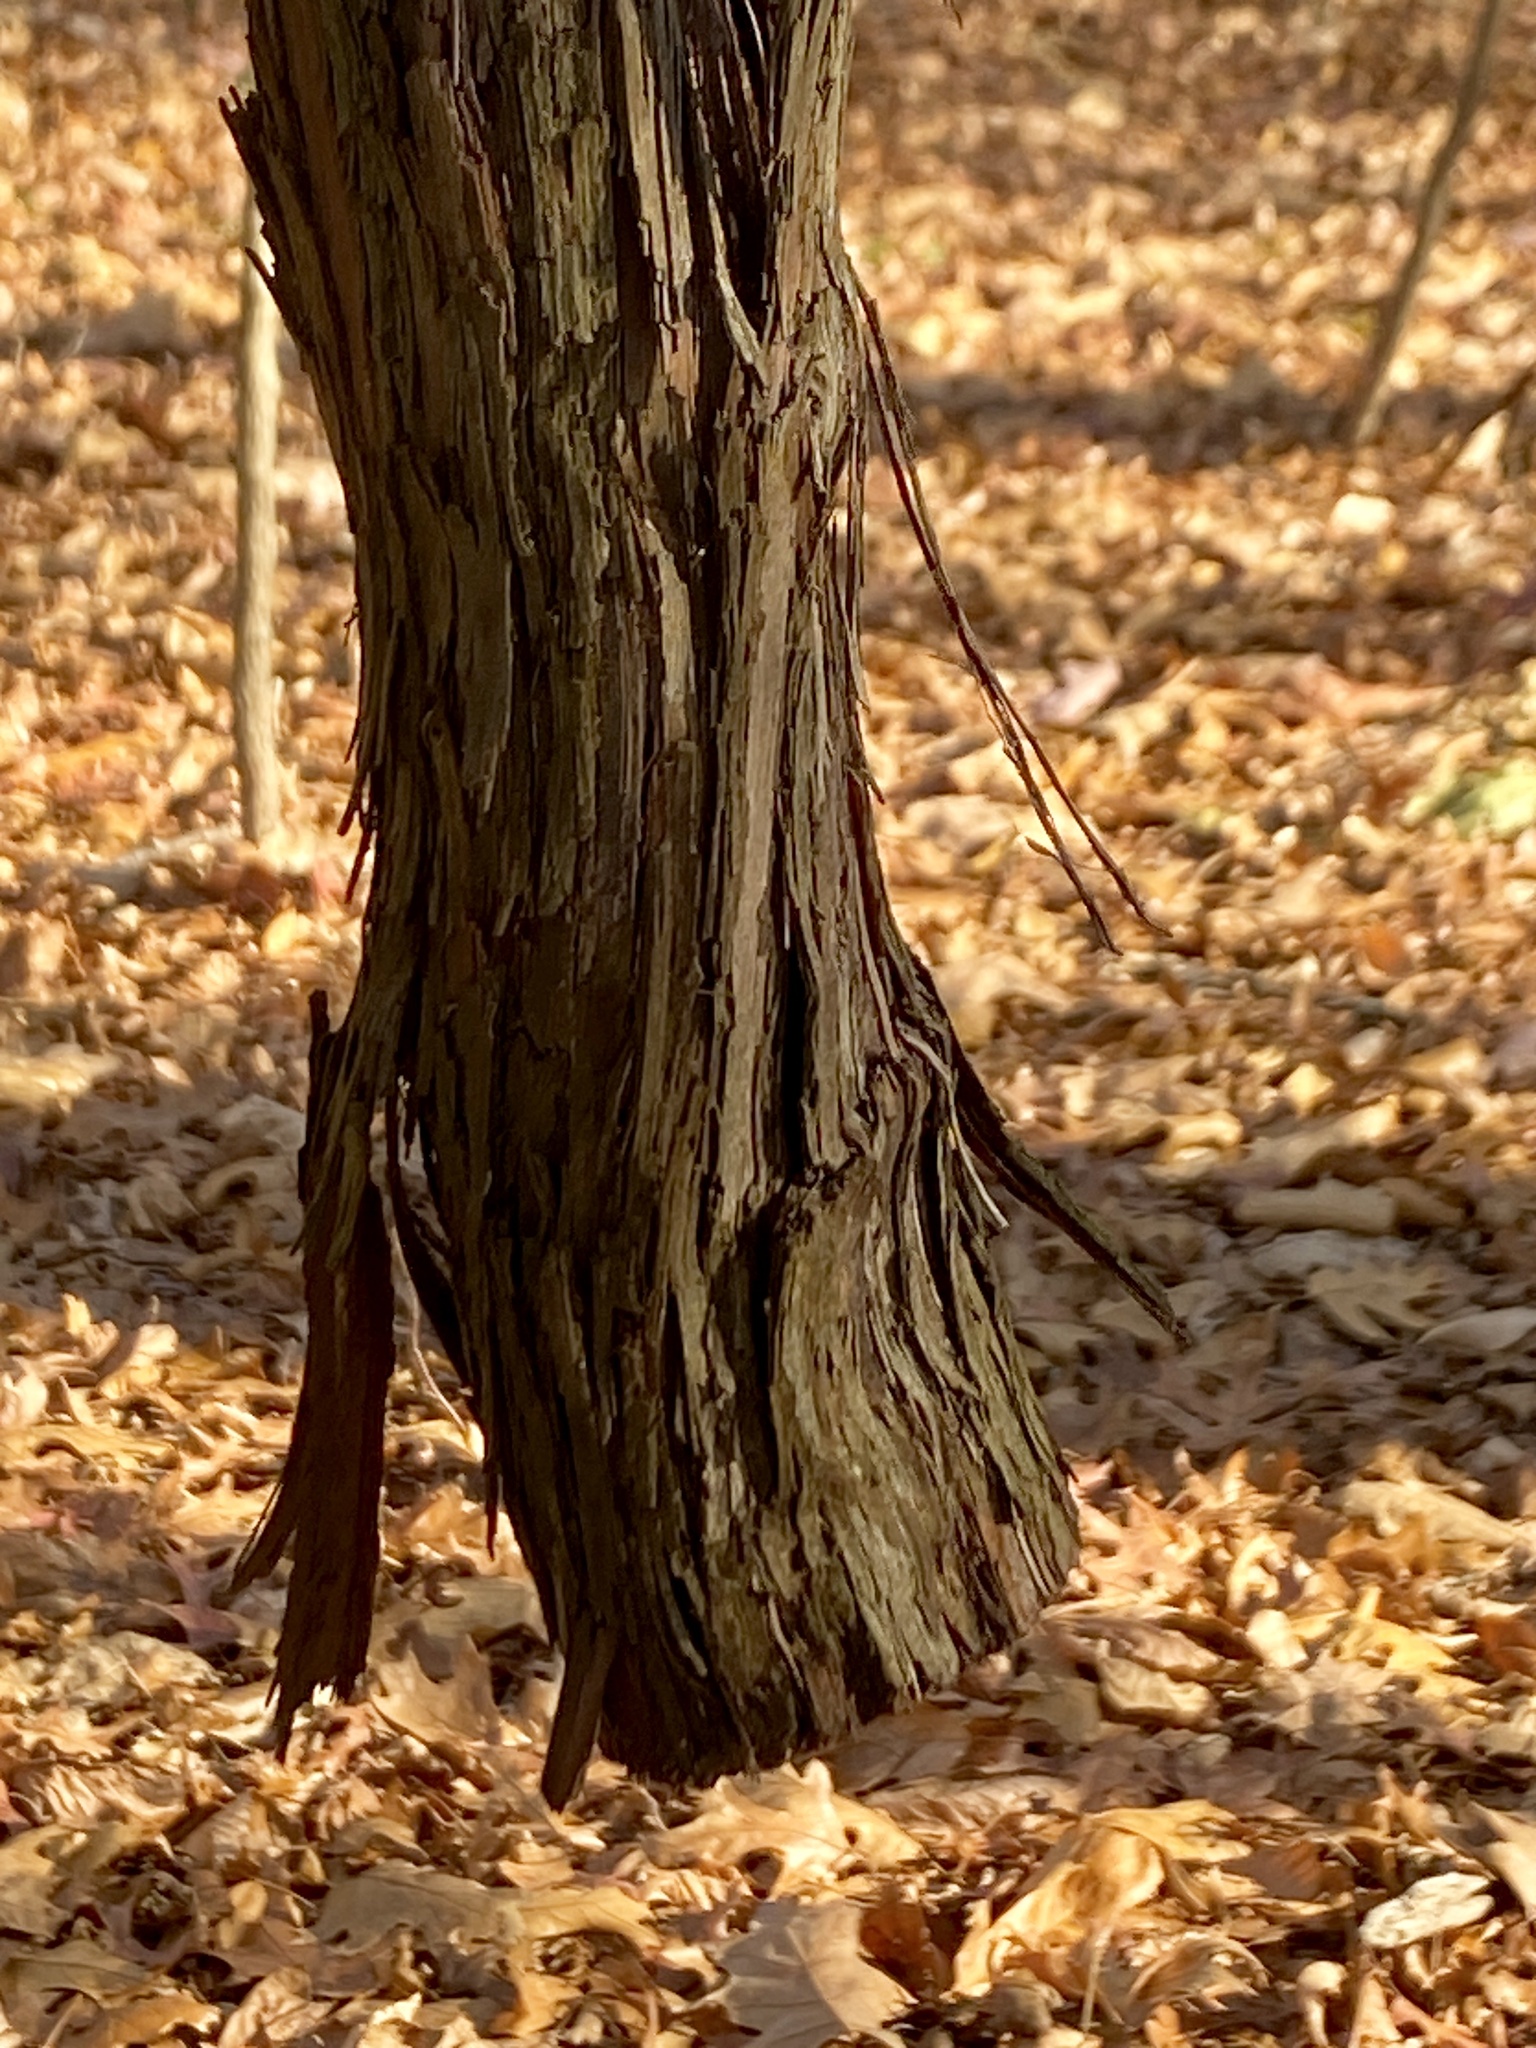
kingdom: Plantae
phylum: Tracheophyta
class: Magnoliopsida
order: Vitales
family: Vitaceae
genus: Vitis
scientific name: Vitis
